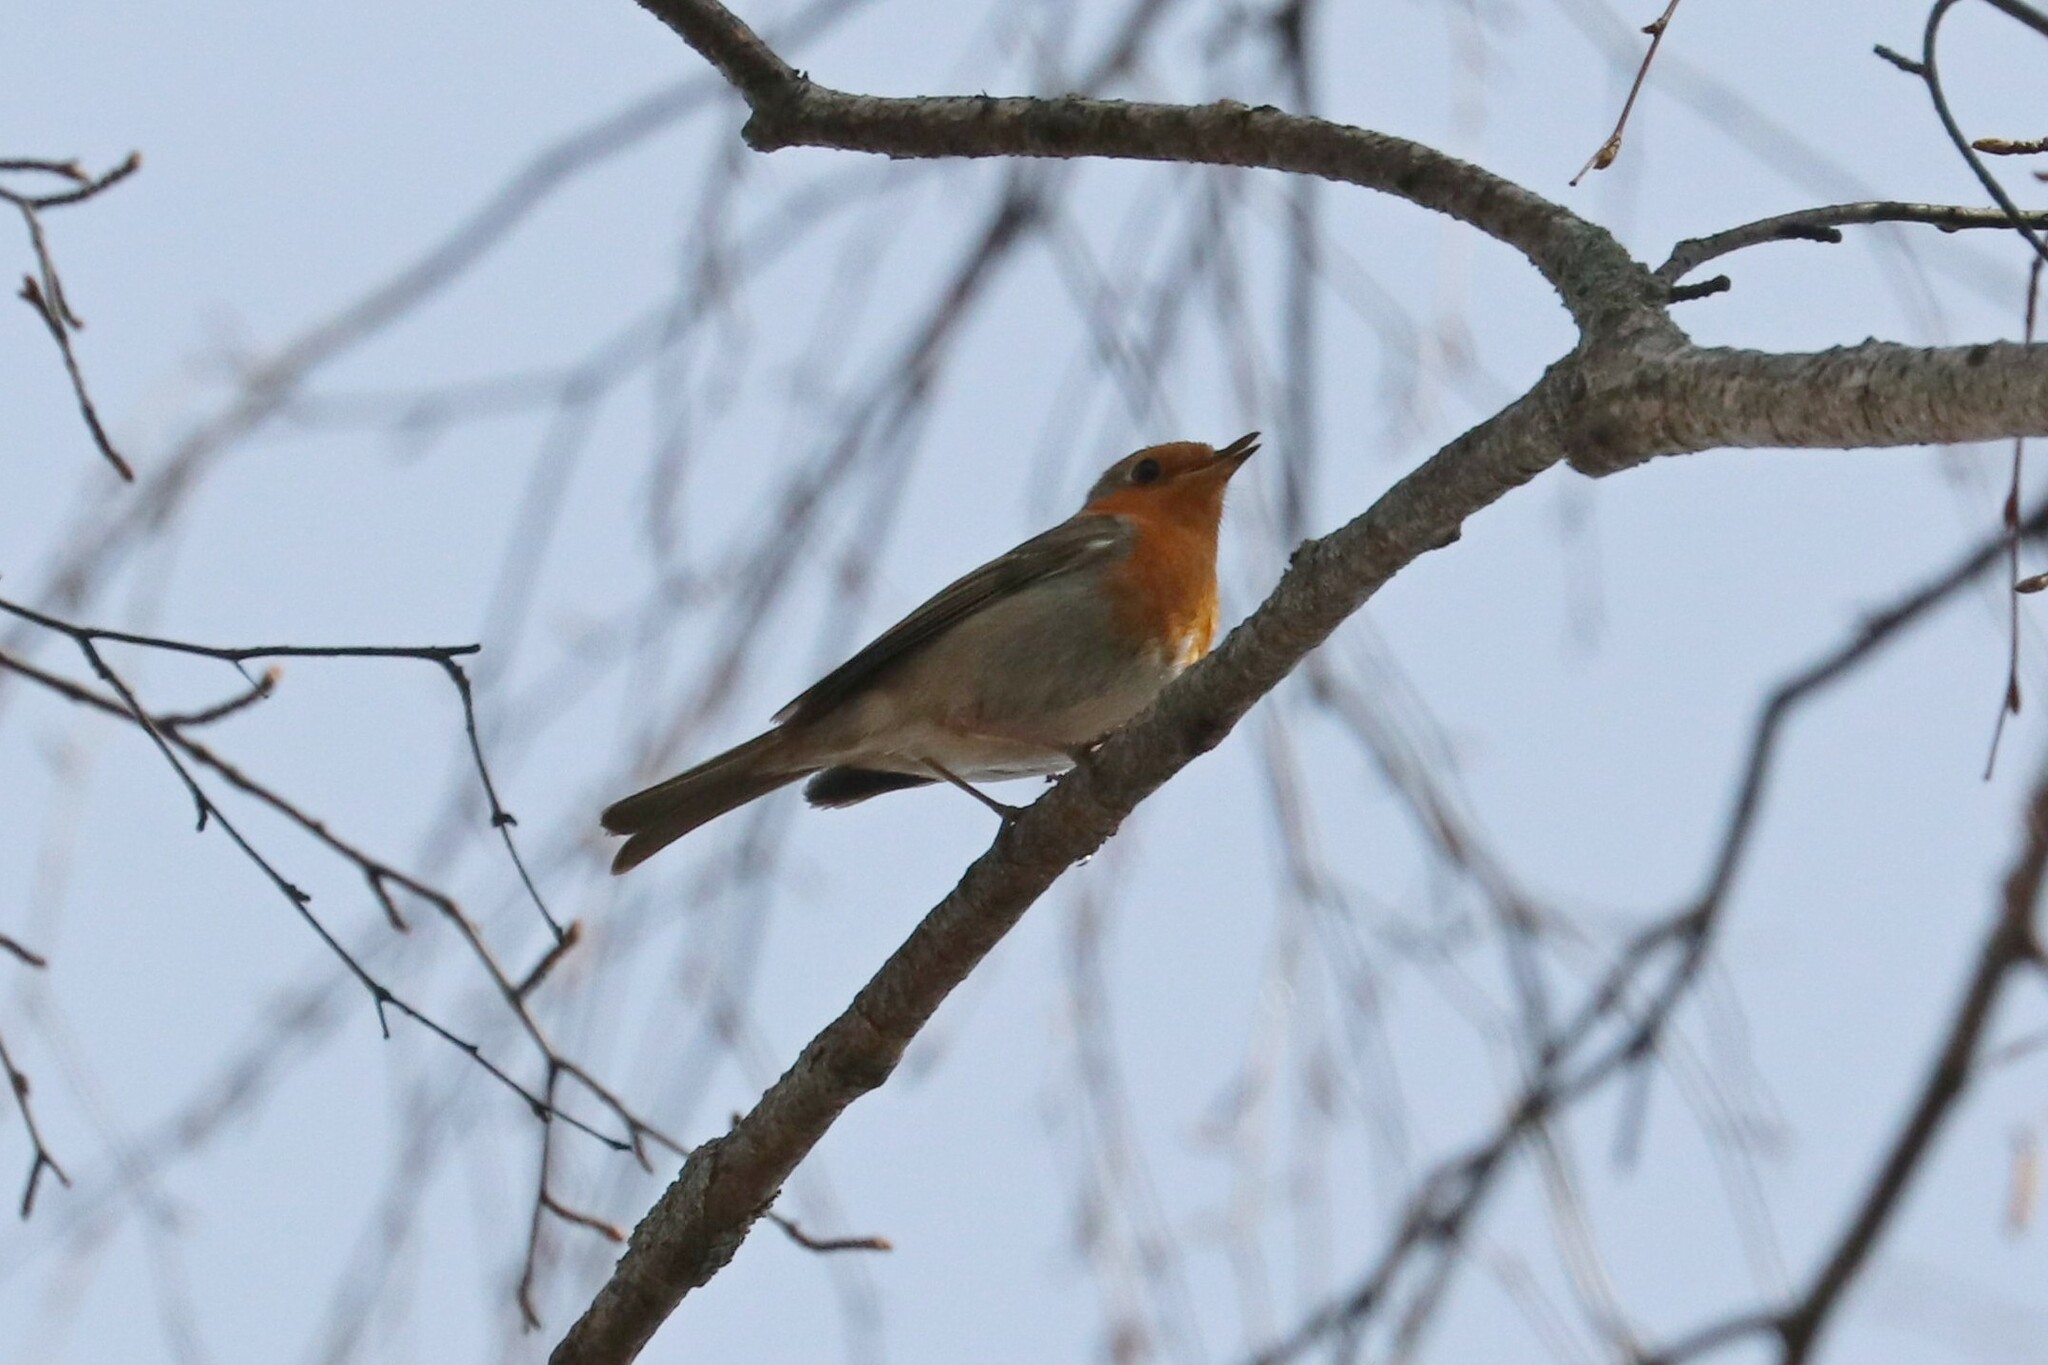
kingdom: Animalia
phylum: Chordata
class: Aves
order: Passeriformes
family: Muscicapidae
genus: Erithacus
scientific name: Erithacus rubecula
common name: European robin
